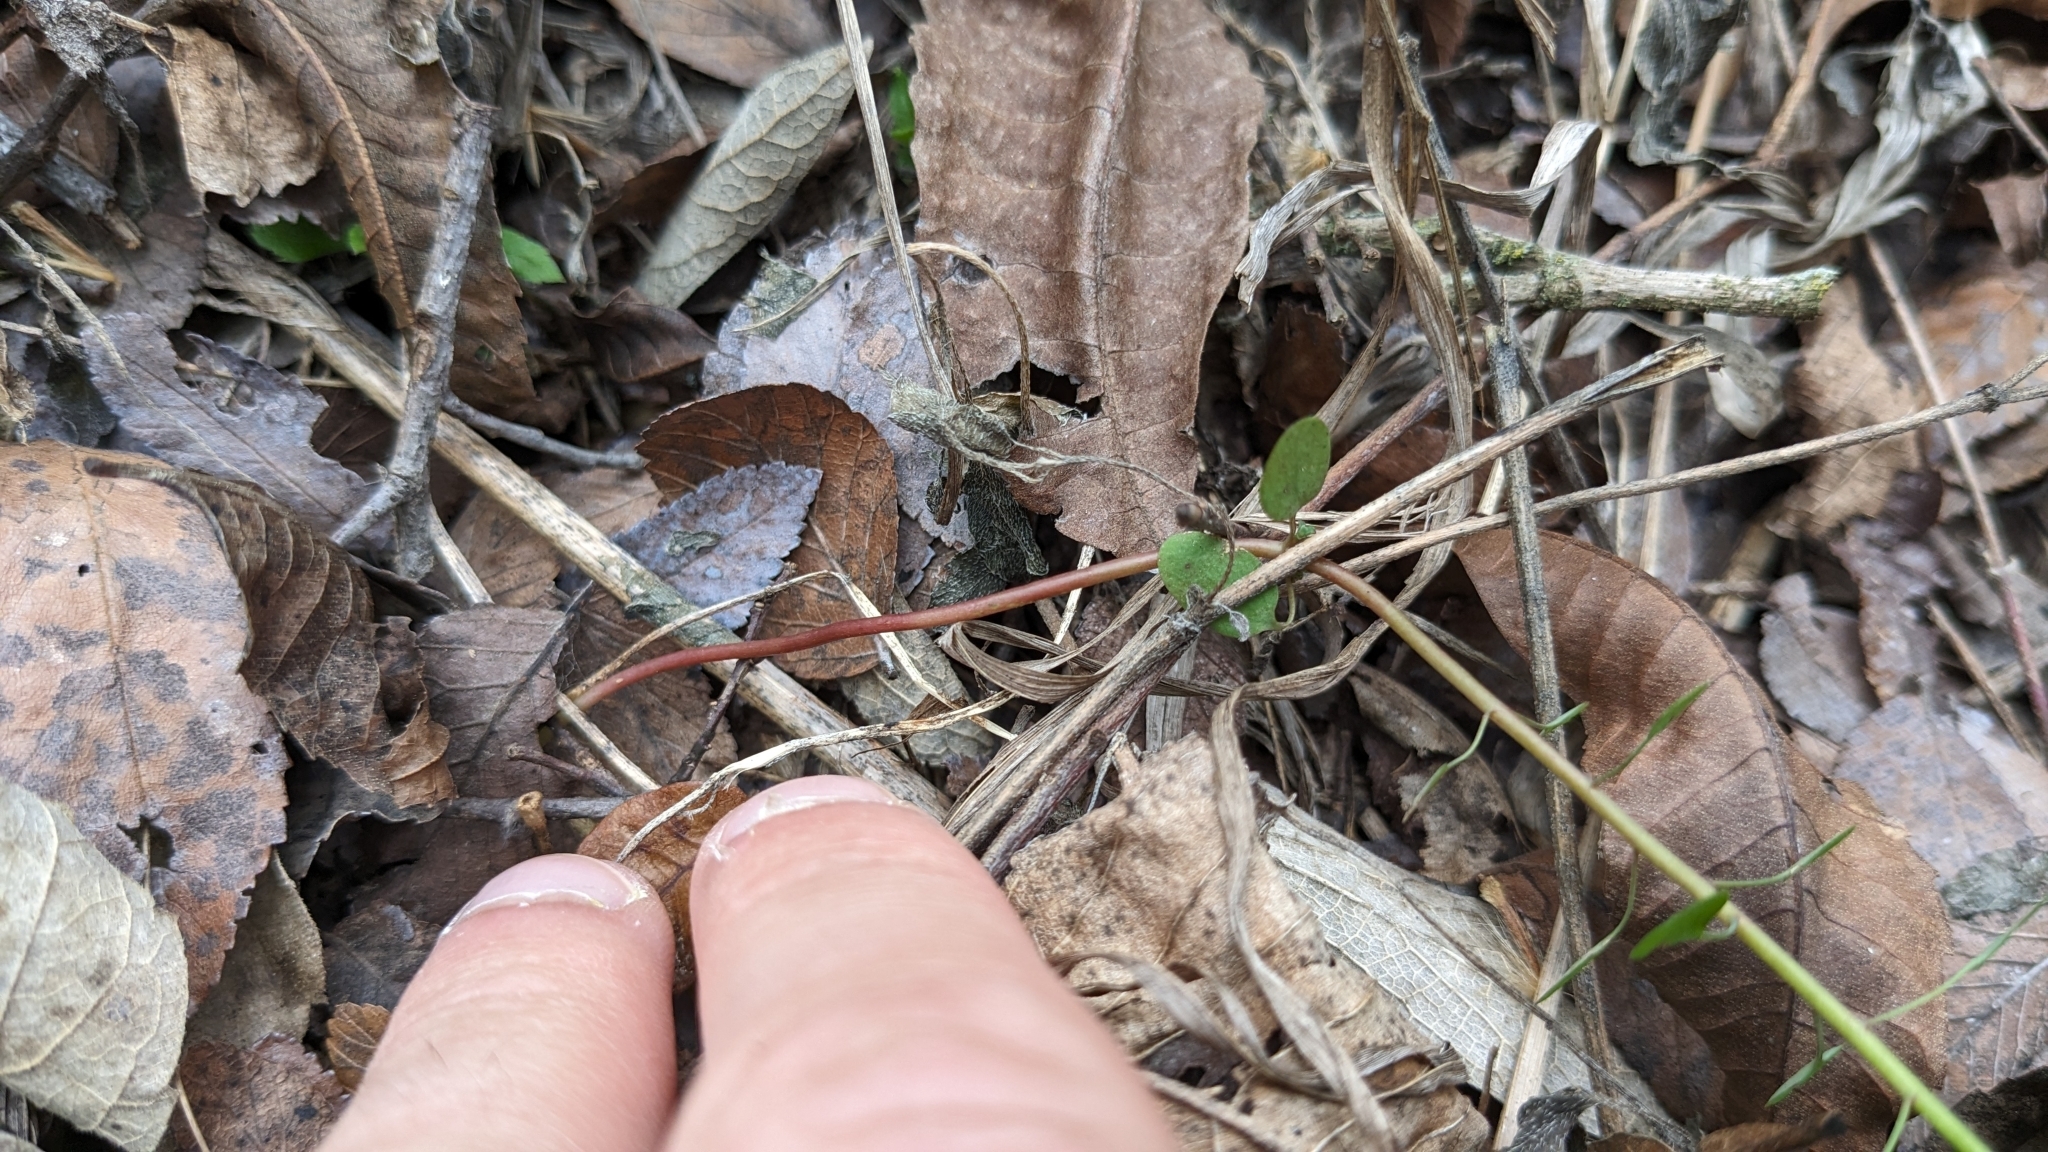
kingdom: Plantae
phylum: Tracheophyta
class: Magnoliopsida
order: Malpighiales
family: Euphorbiaceae
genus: Euphorbia
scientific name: Euphorbia roemeriana
